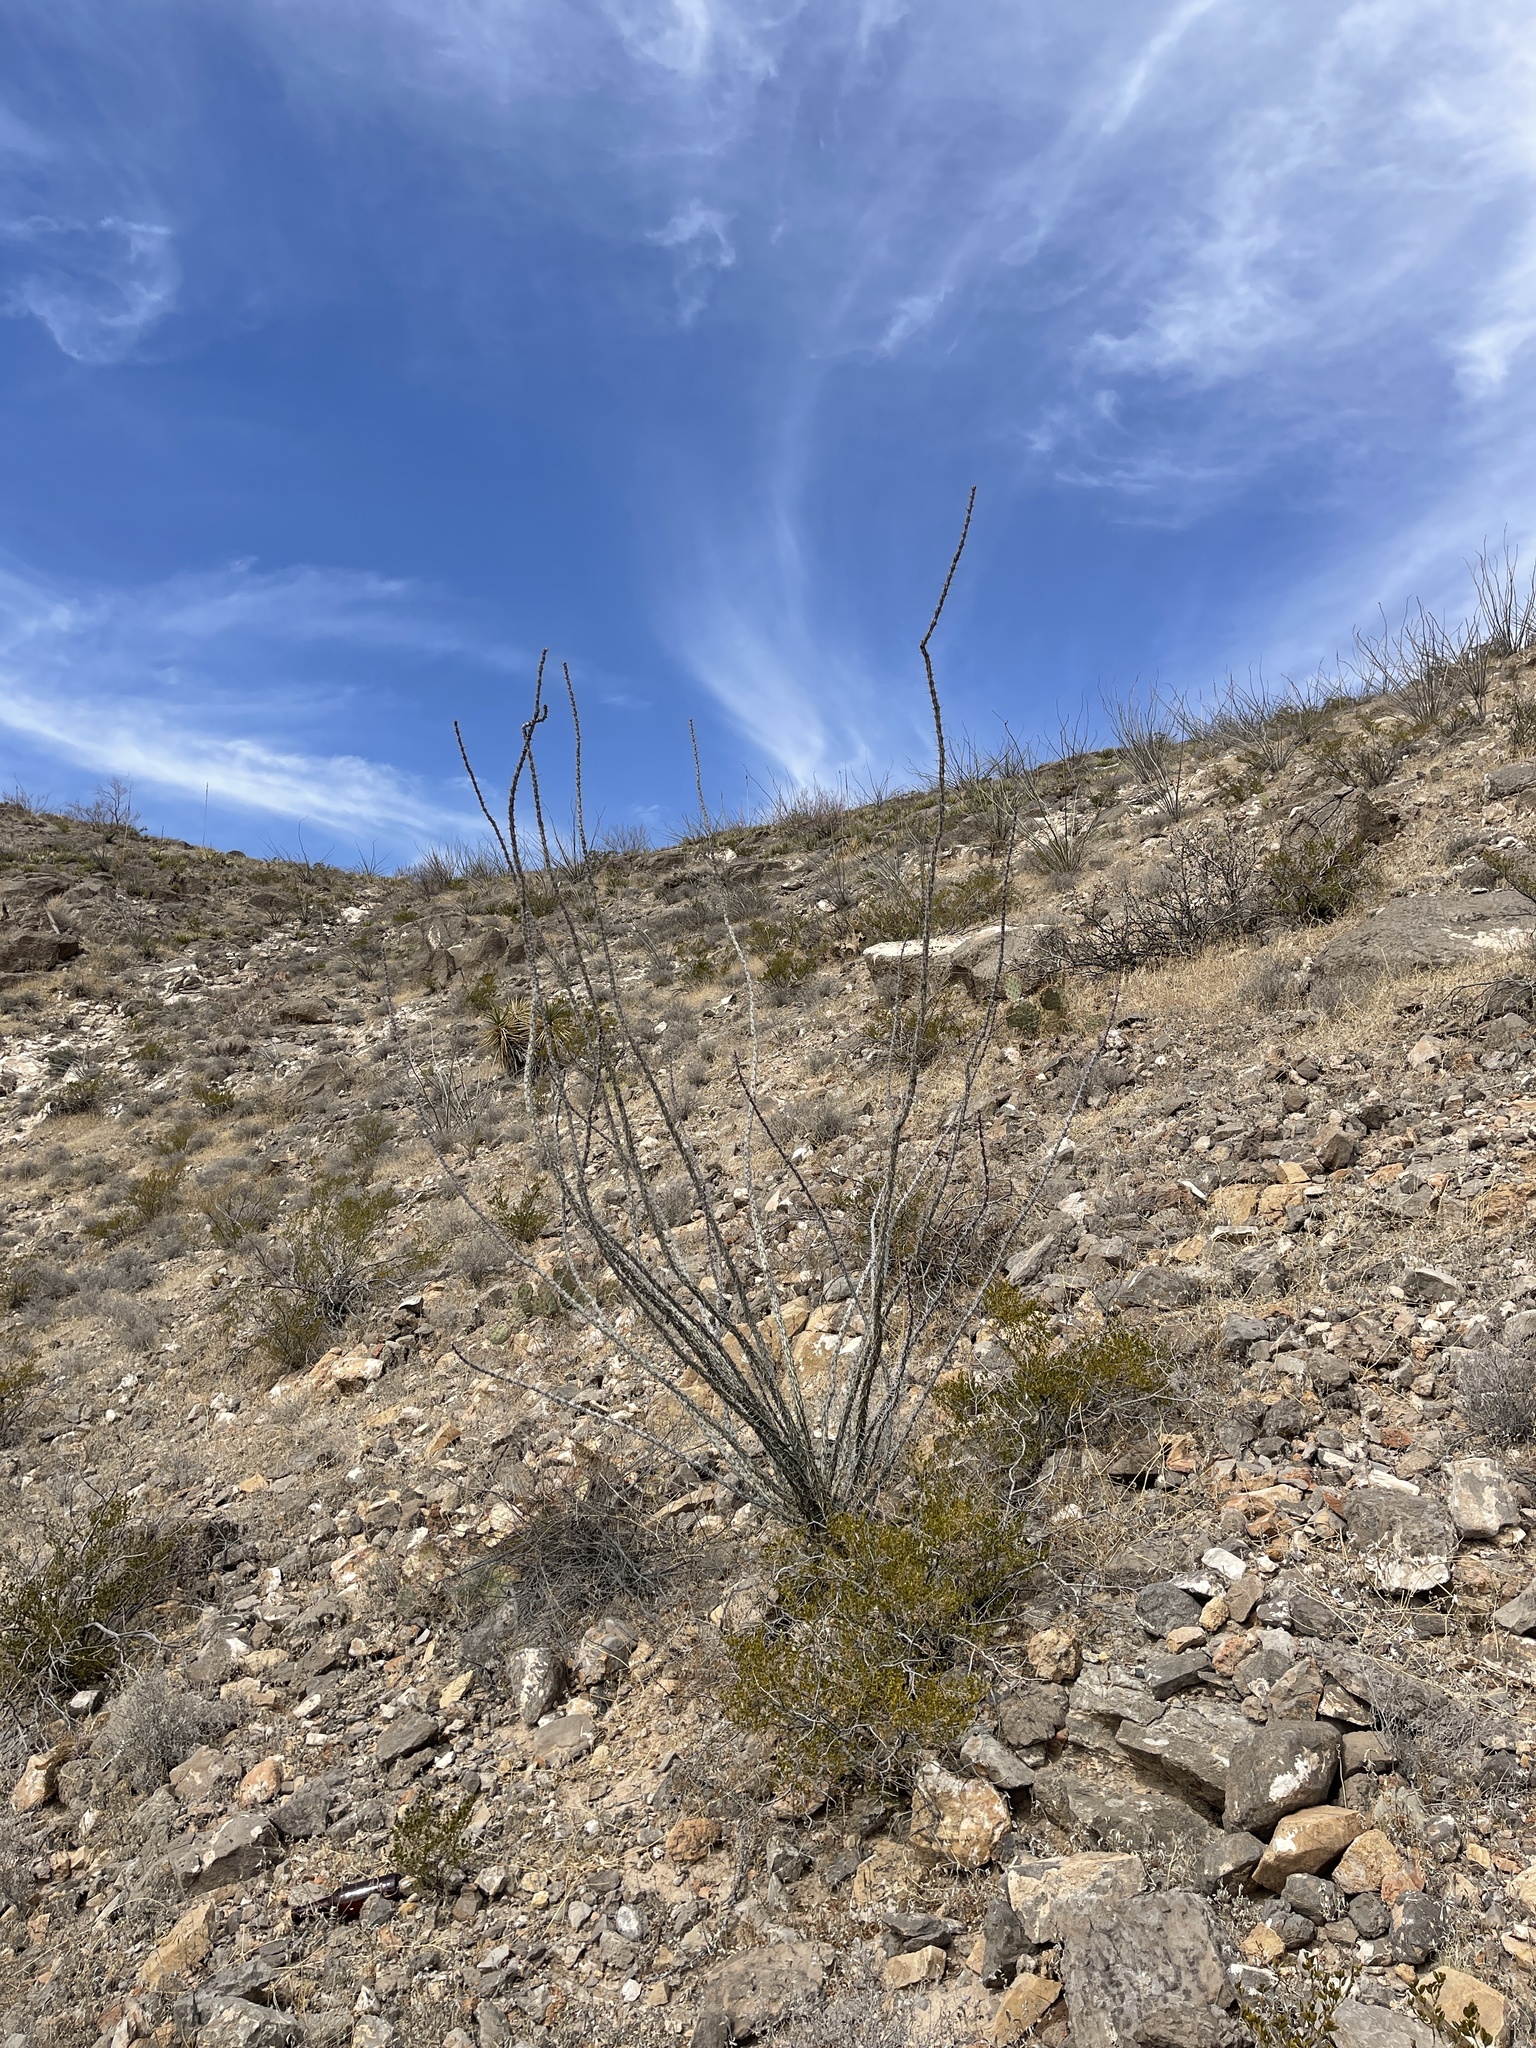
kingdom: Plantae
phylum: Tracheophyta
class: Magnoliopsida
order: Ericales
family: Fouquieriaceae
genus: Fouquieria
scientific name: Fouquieria splendens
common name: Vine-cactus
